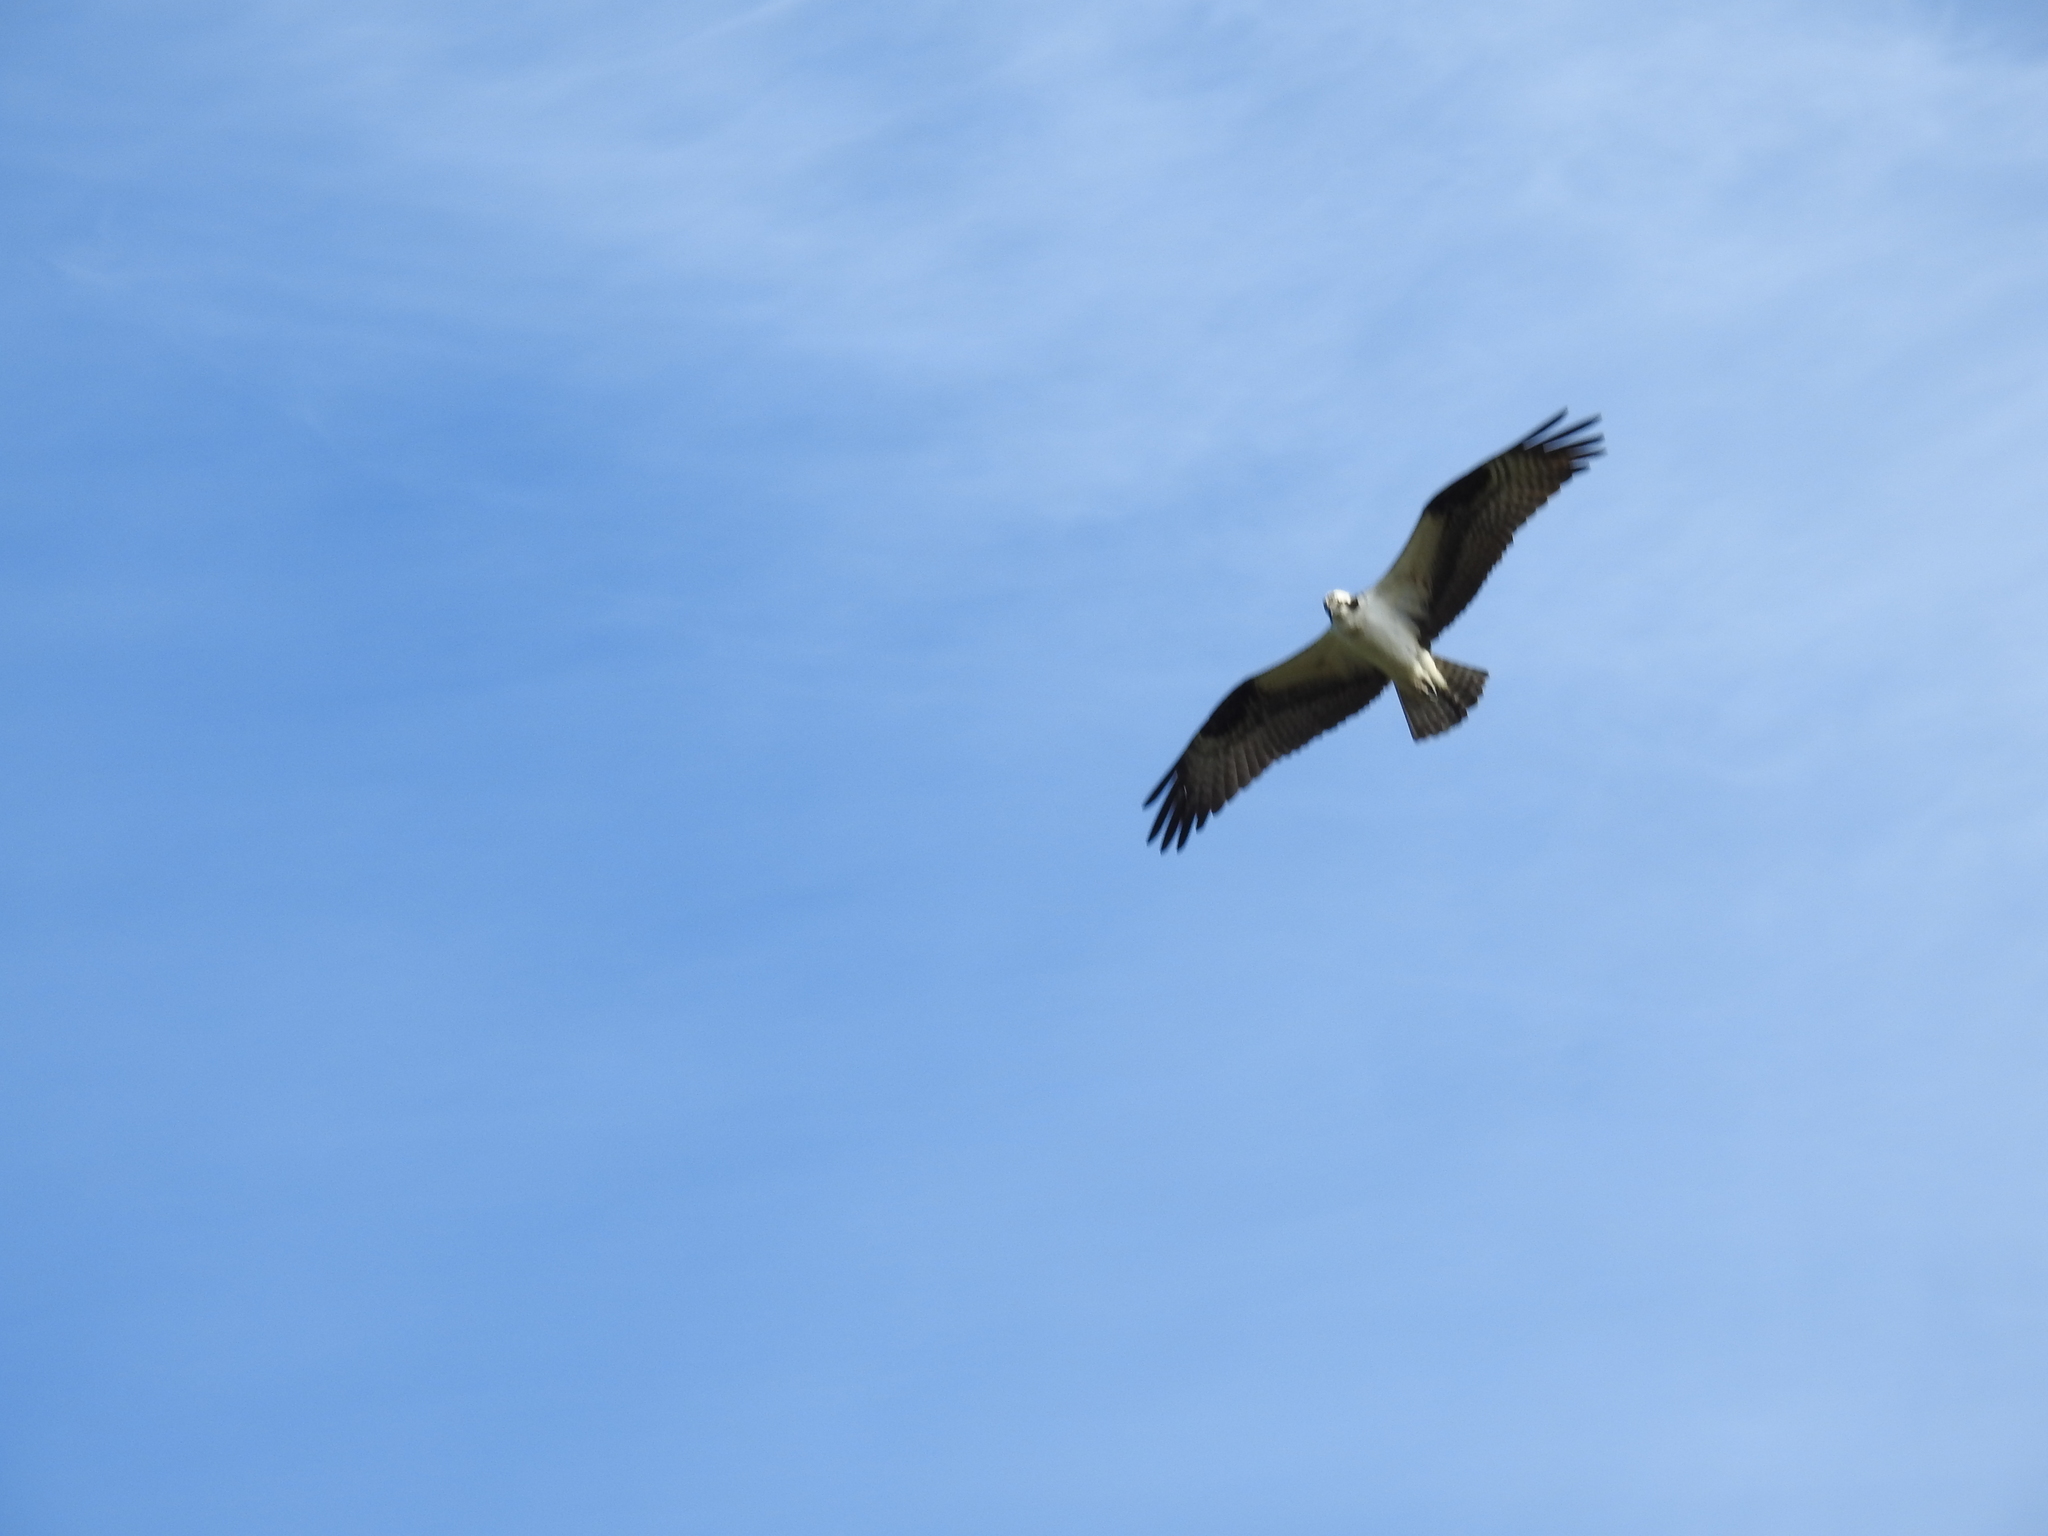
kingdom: Animalia
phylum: Chordata
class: Aves
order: Accipitriformes
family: Pandionidae
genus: Pandion
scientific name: Pandion haliaetus
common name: Osprey
